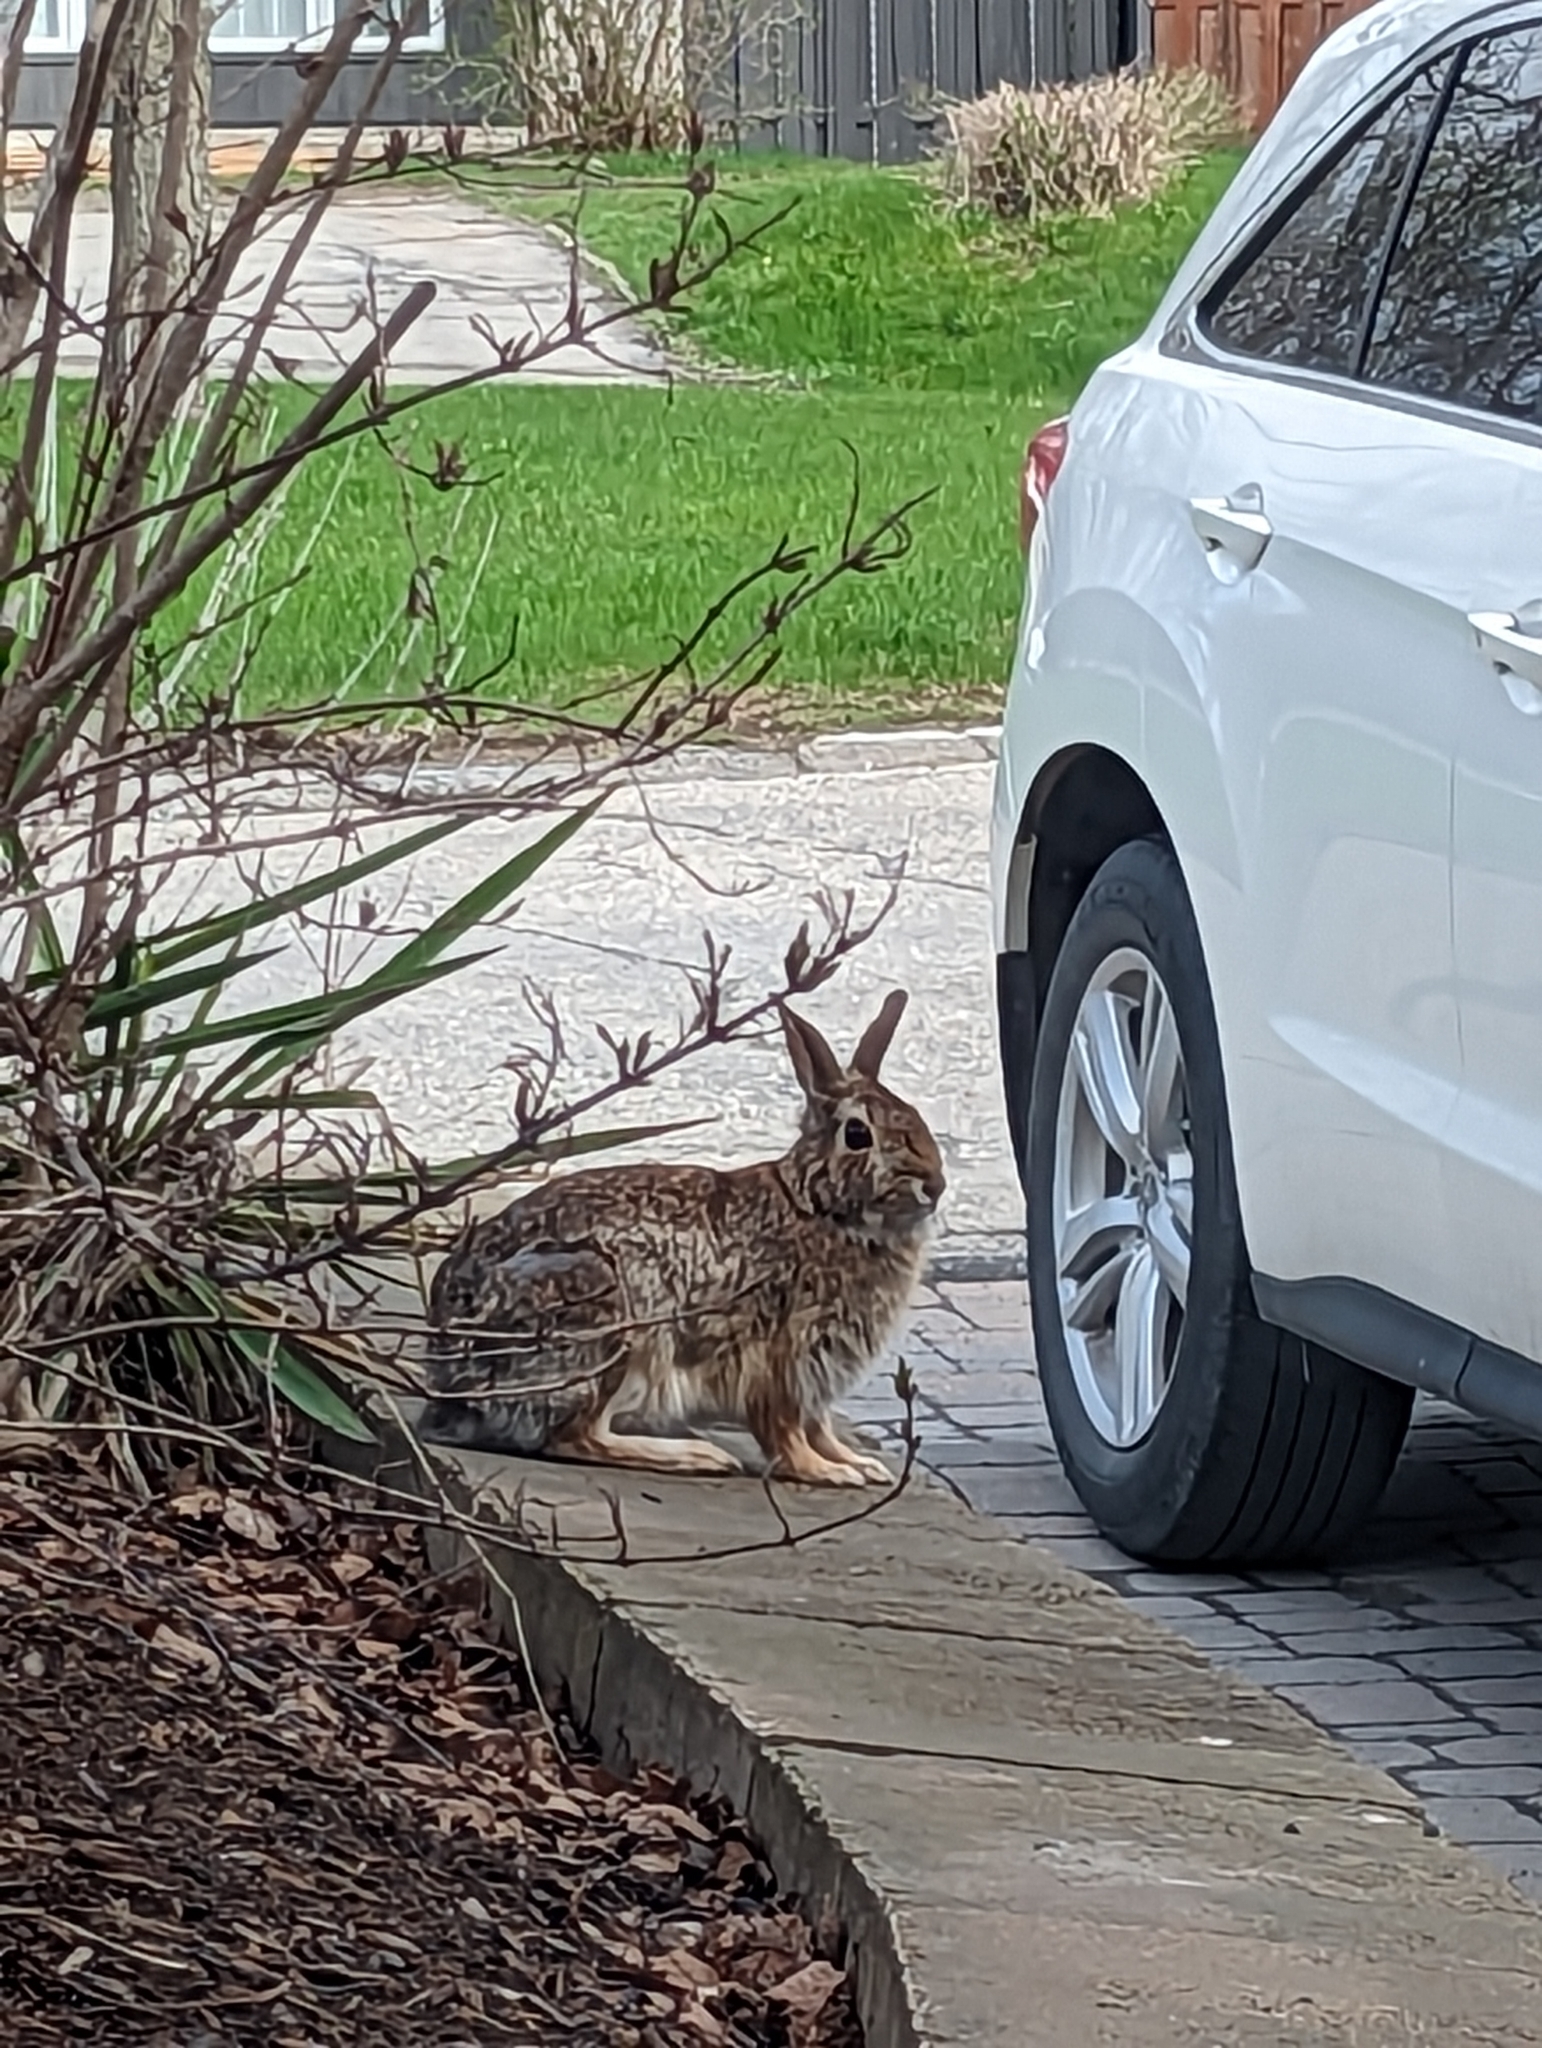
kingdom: Animalia
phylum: Chordata
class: Mammalia
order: Lagomorpha
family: Leporidae
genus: Sylvilagus
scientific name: Sylvilagus floridanus
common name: Eastern cottontail
